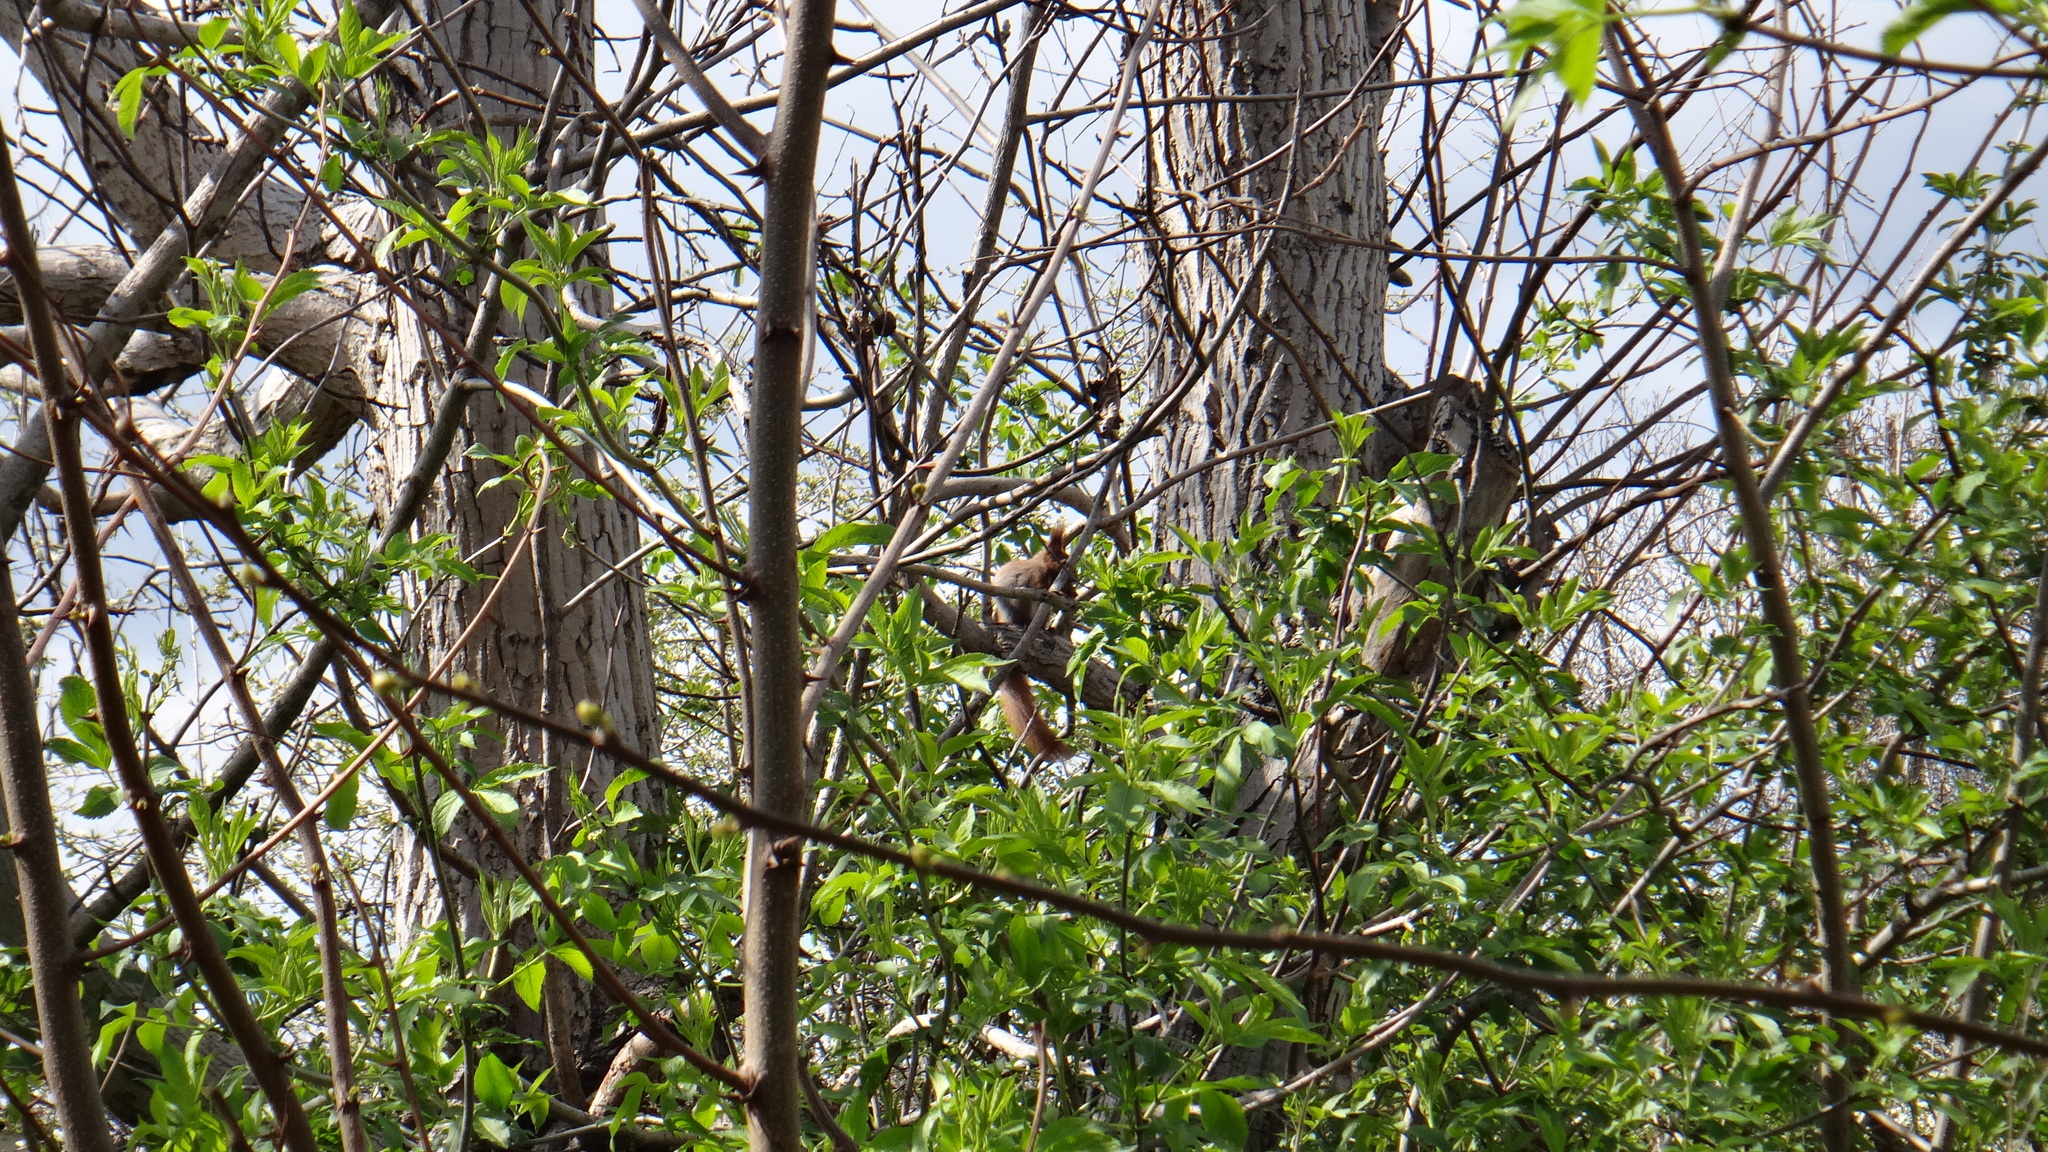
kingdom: Animalia
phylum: Chordata
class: Mammalia
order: Rodentia
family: Sciuridae
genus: Sciurus
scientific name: Sciurus vulgaris
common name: Eurasian red squirrel
